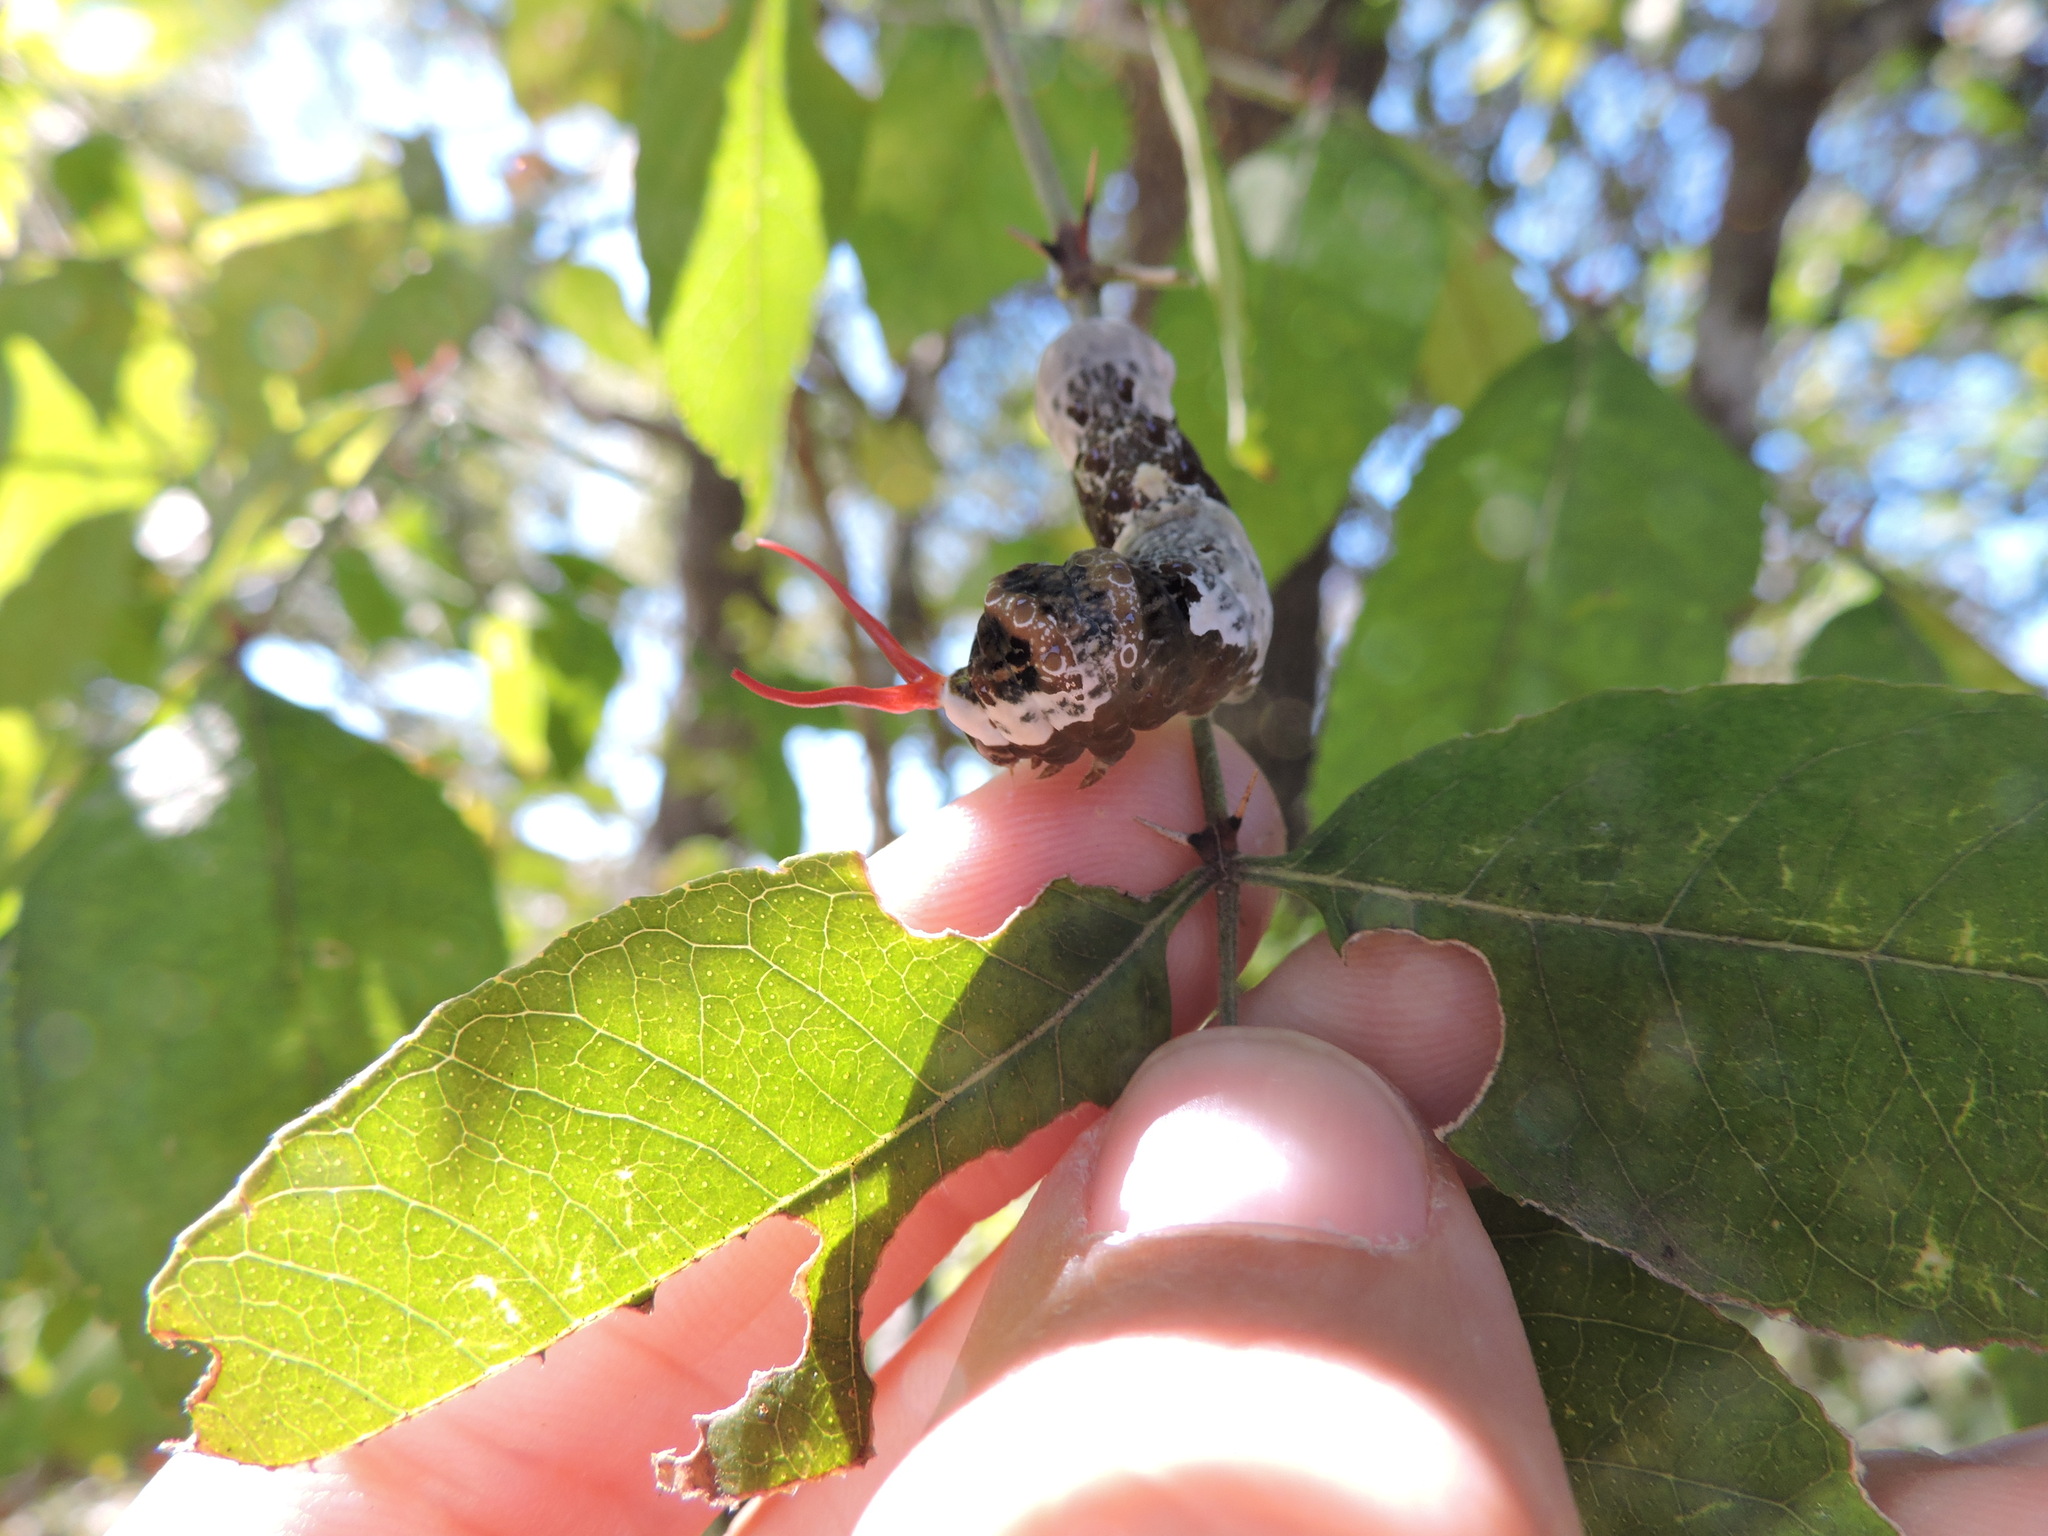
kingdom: Animalia
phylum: Arthropoda
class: Insecta
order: Lepidoptera
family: Papilionidae
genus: Papilio
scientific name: Papilio cresphontes
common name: Giant swallowtail
